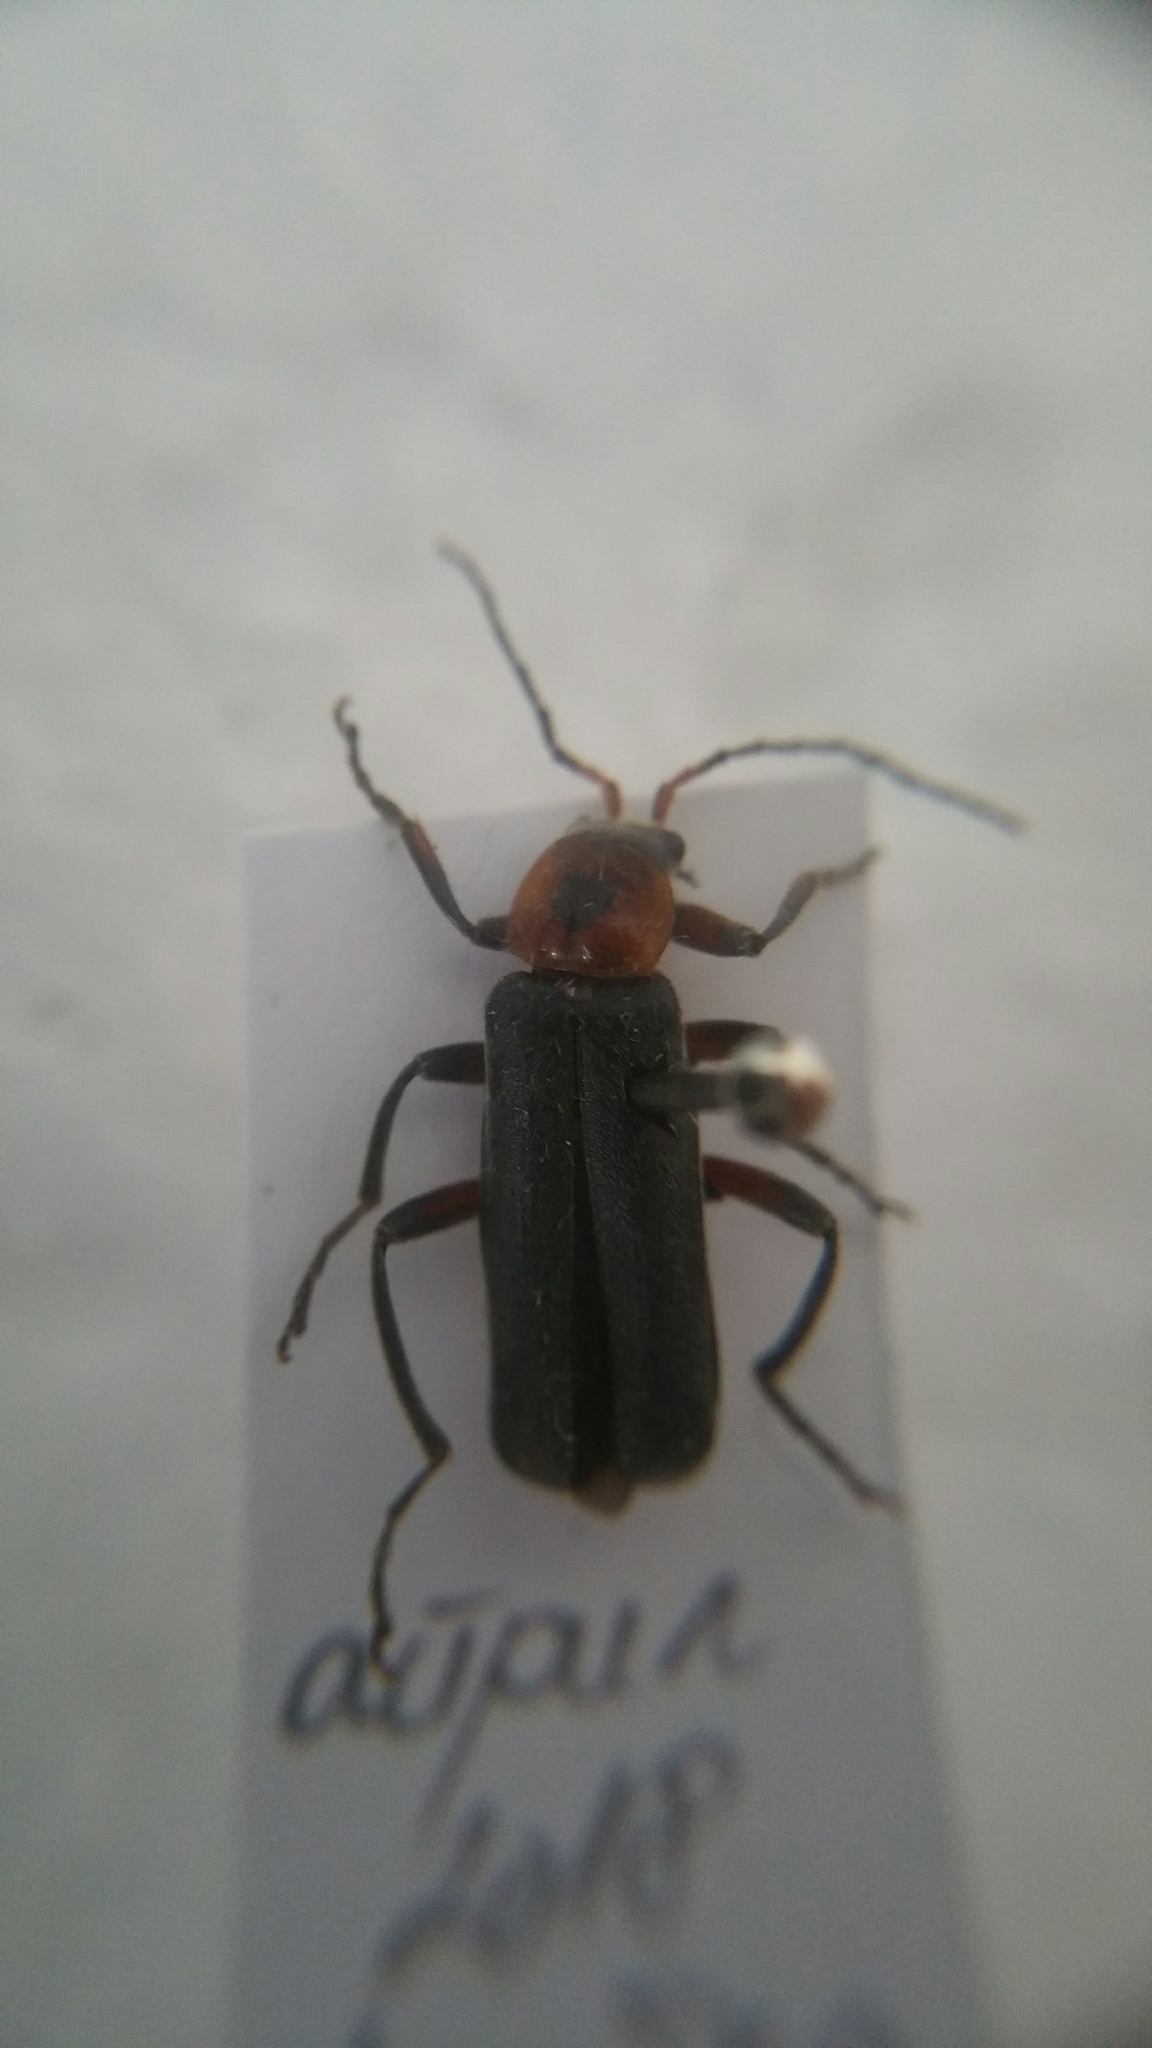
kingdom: Animalia
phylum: Arthropoda
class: Insecta
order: Coleoptera
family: Cantharidae
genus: Cantharis
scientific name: Cantharis rustica
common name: Soldier beetle
